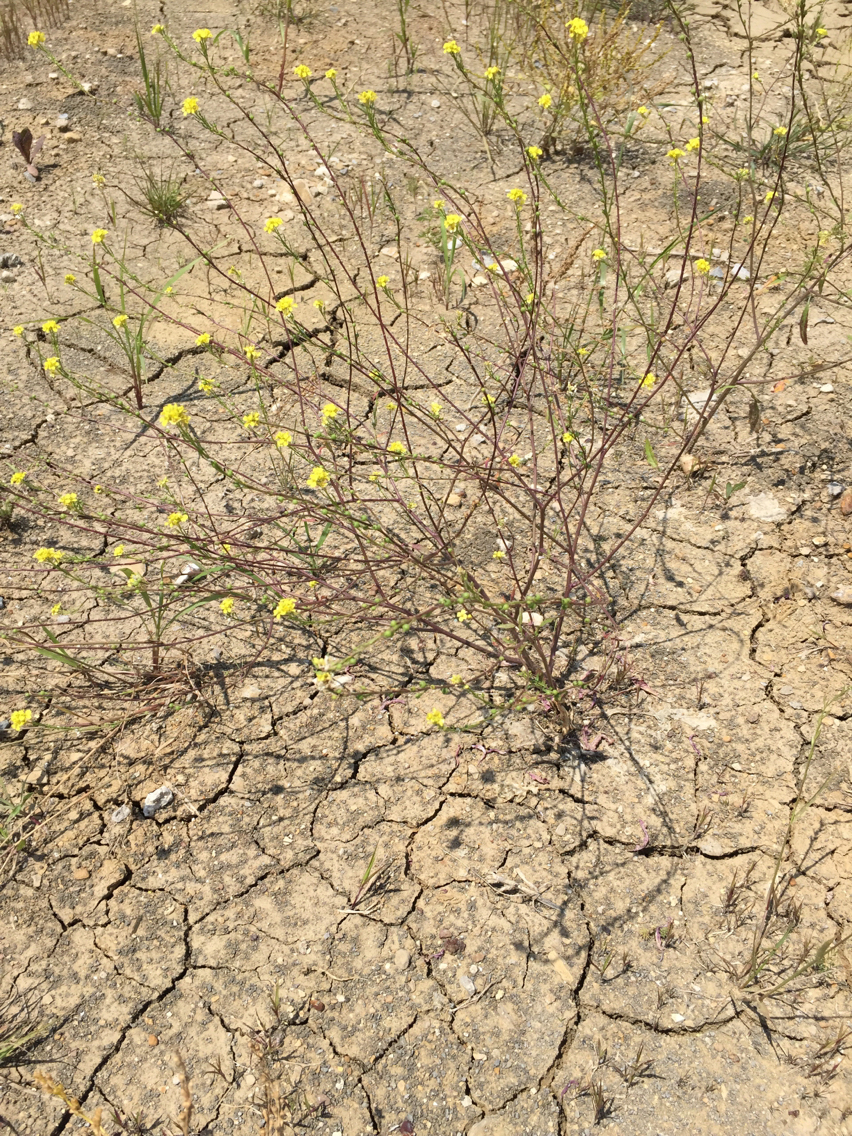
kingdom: Plantae
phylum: Tracheophyta
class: Magnoliopsida
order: Brassicales
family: Brassicaceae
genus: Rapistrum
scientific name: Rapistrum rugosum
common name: Annual bastardcabbage
